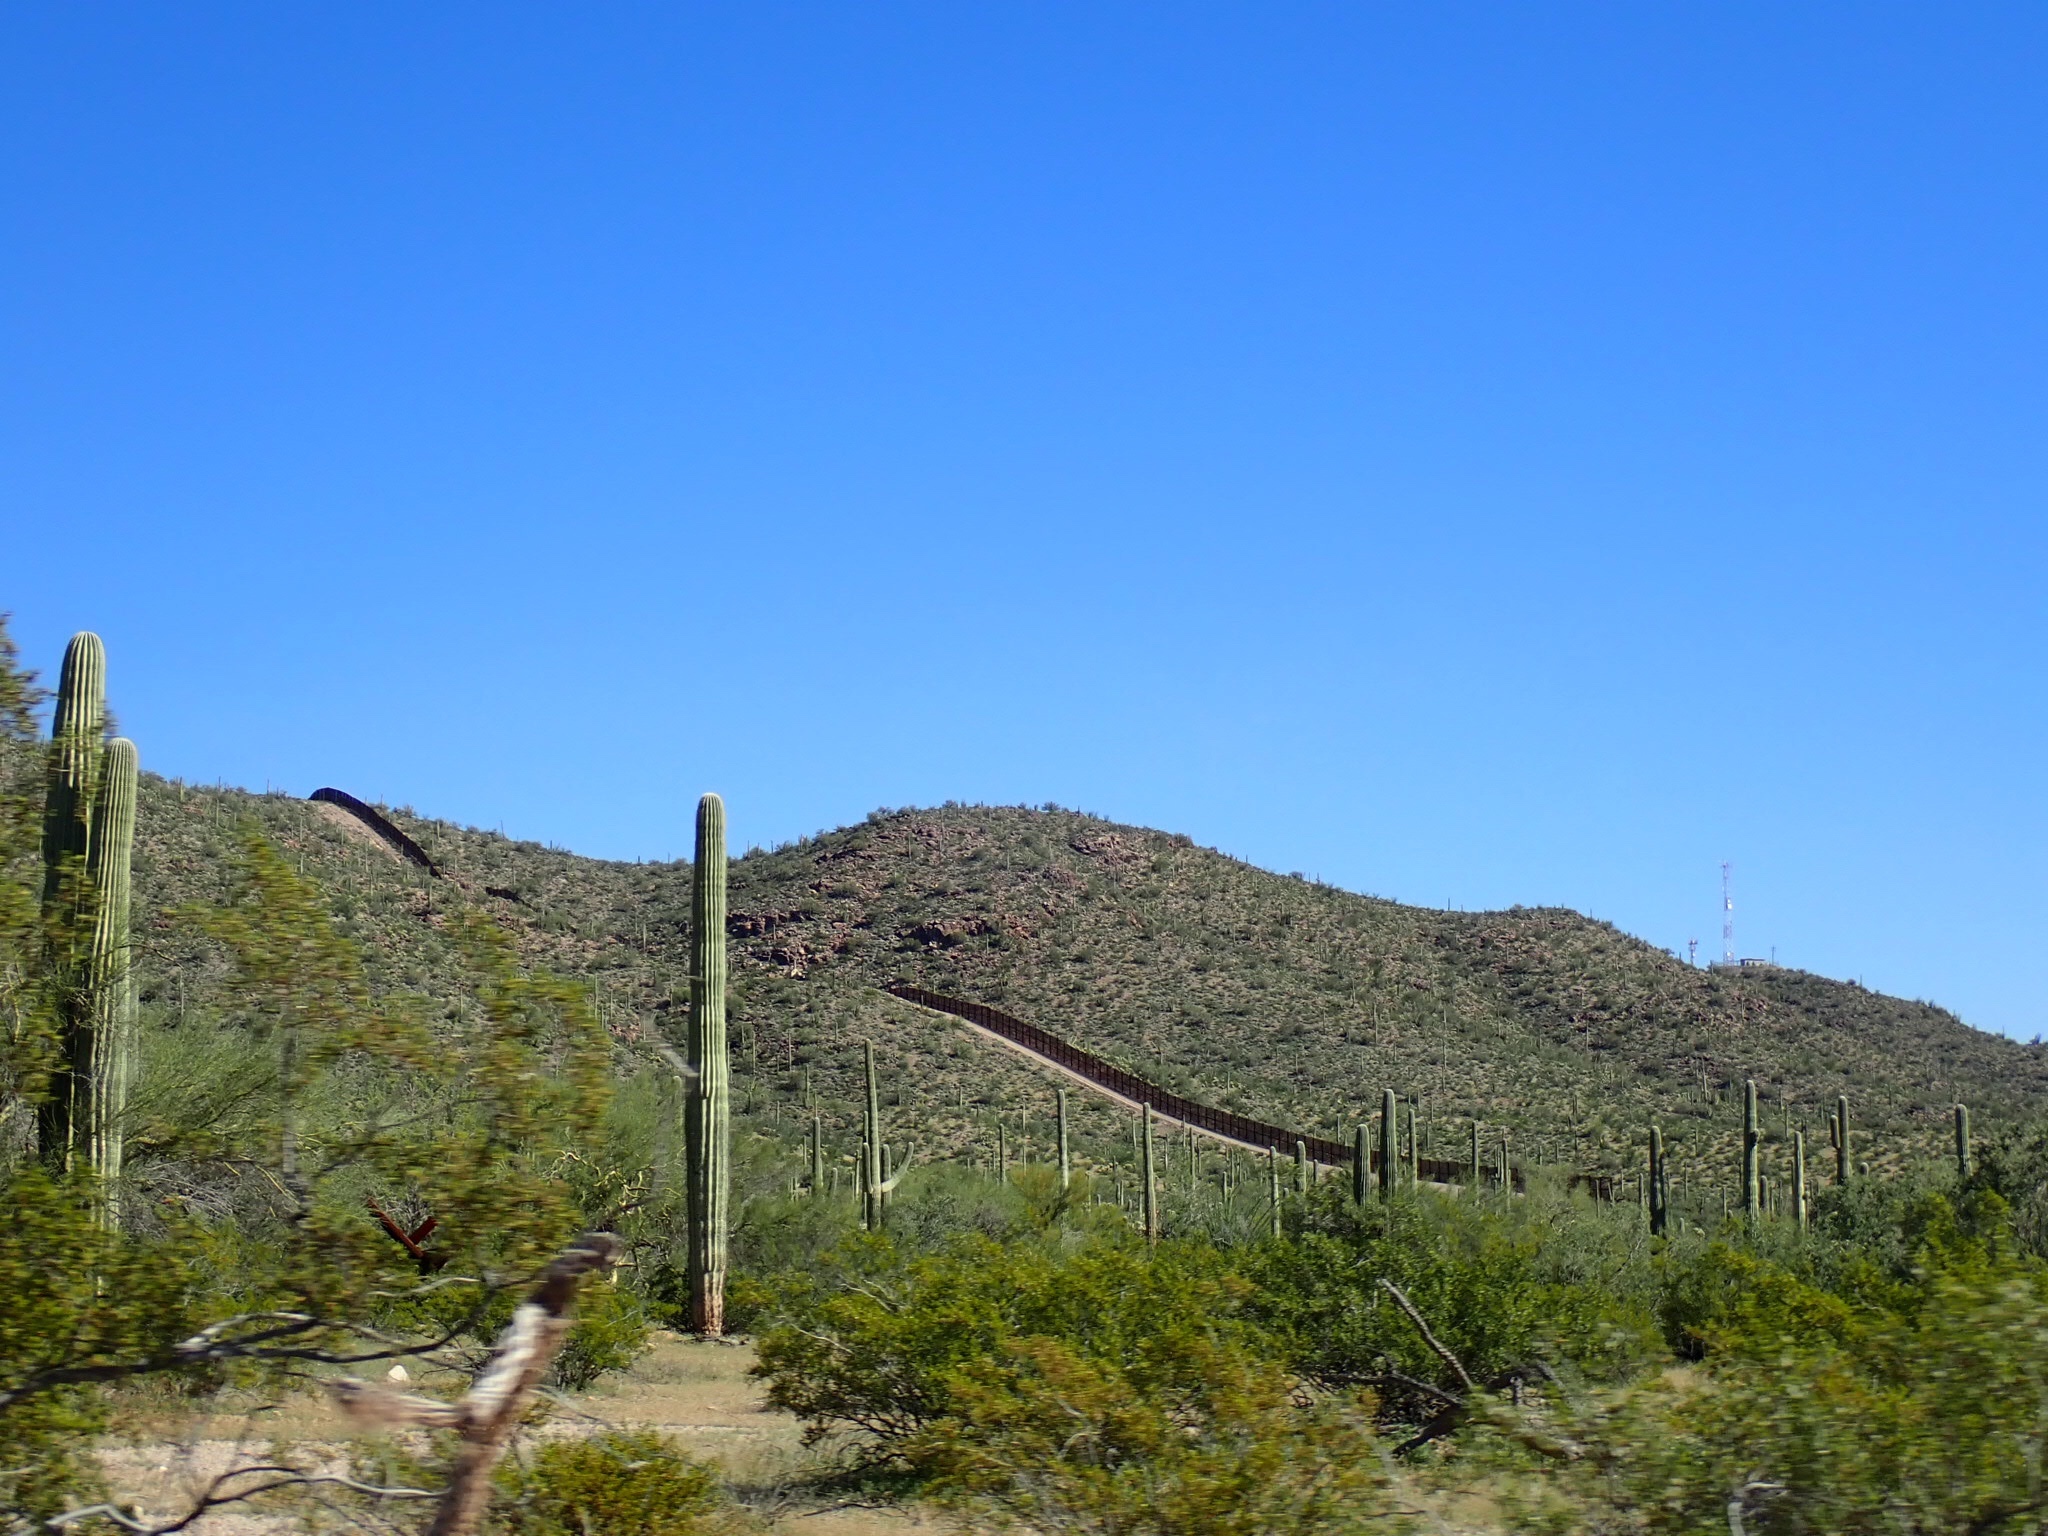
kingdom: Plantae
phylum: Tracheophyta
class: Magnoliopsida
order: Caryophyllales
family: Cactaceae
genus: Carnegiea
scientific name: Carnegiea gigantea
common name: Saguaro
